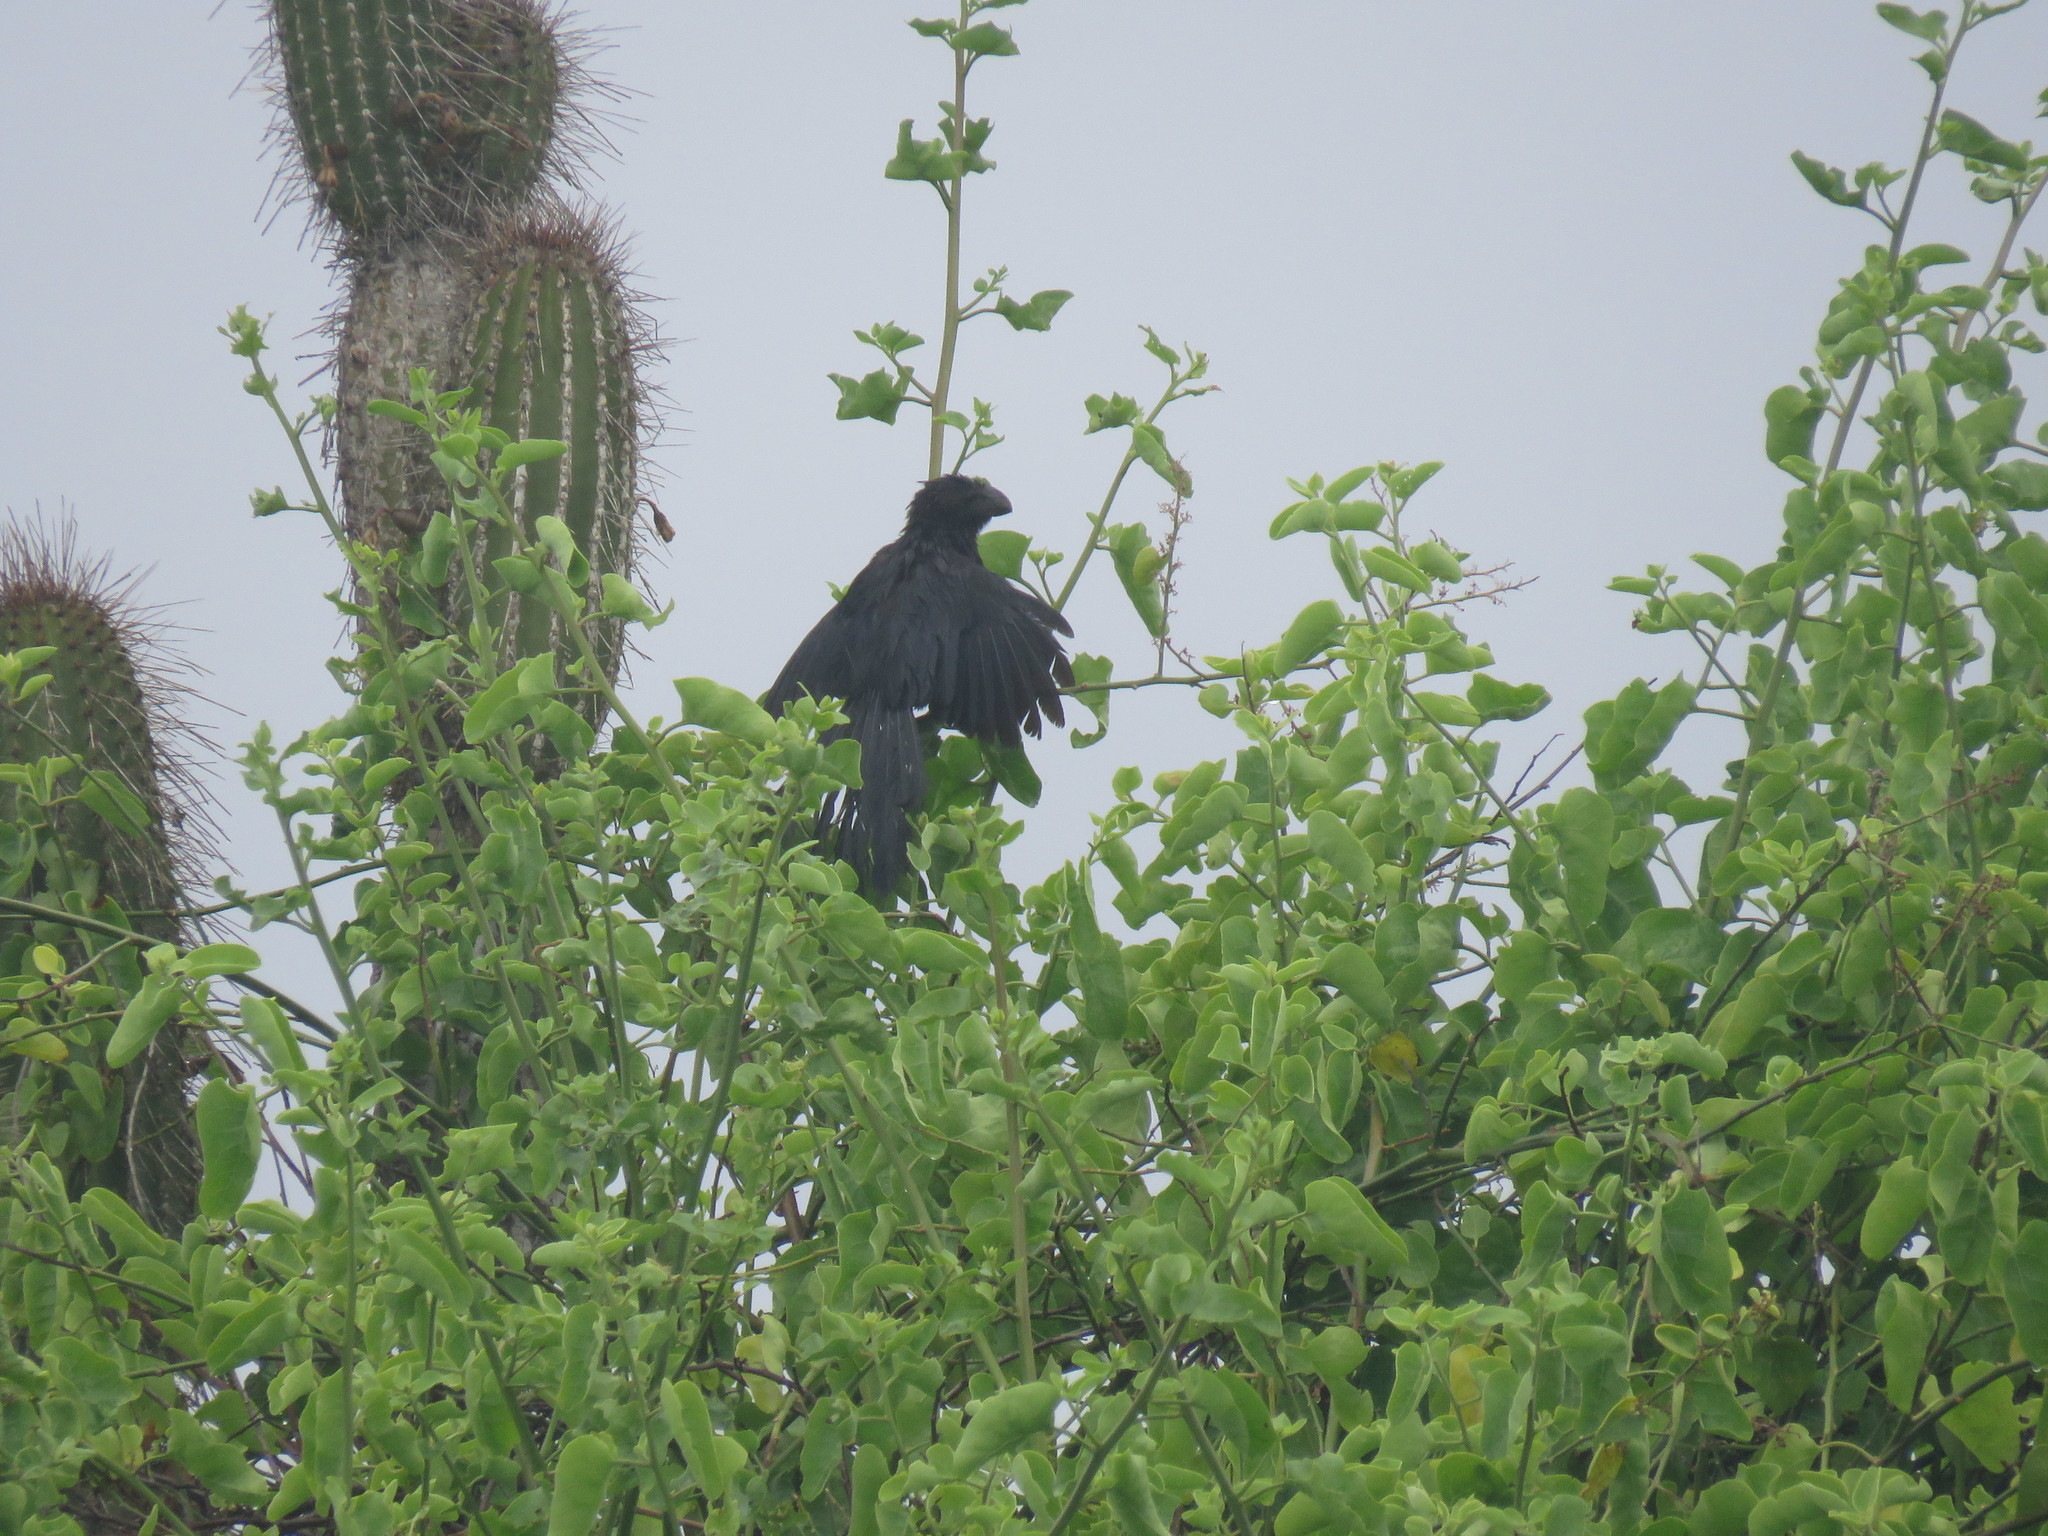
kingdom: Animalia
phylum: Chordata
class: Aves
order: Cuculiformes
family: Cuculidae
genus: Crotophaga
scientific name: Crotophaga ani
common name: Smooth-billed ani
